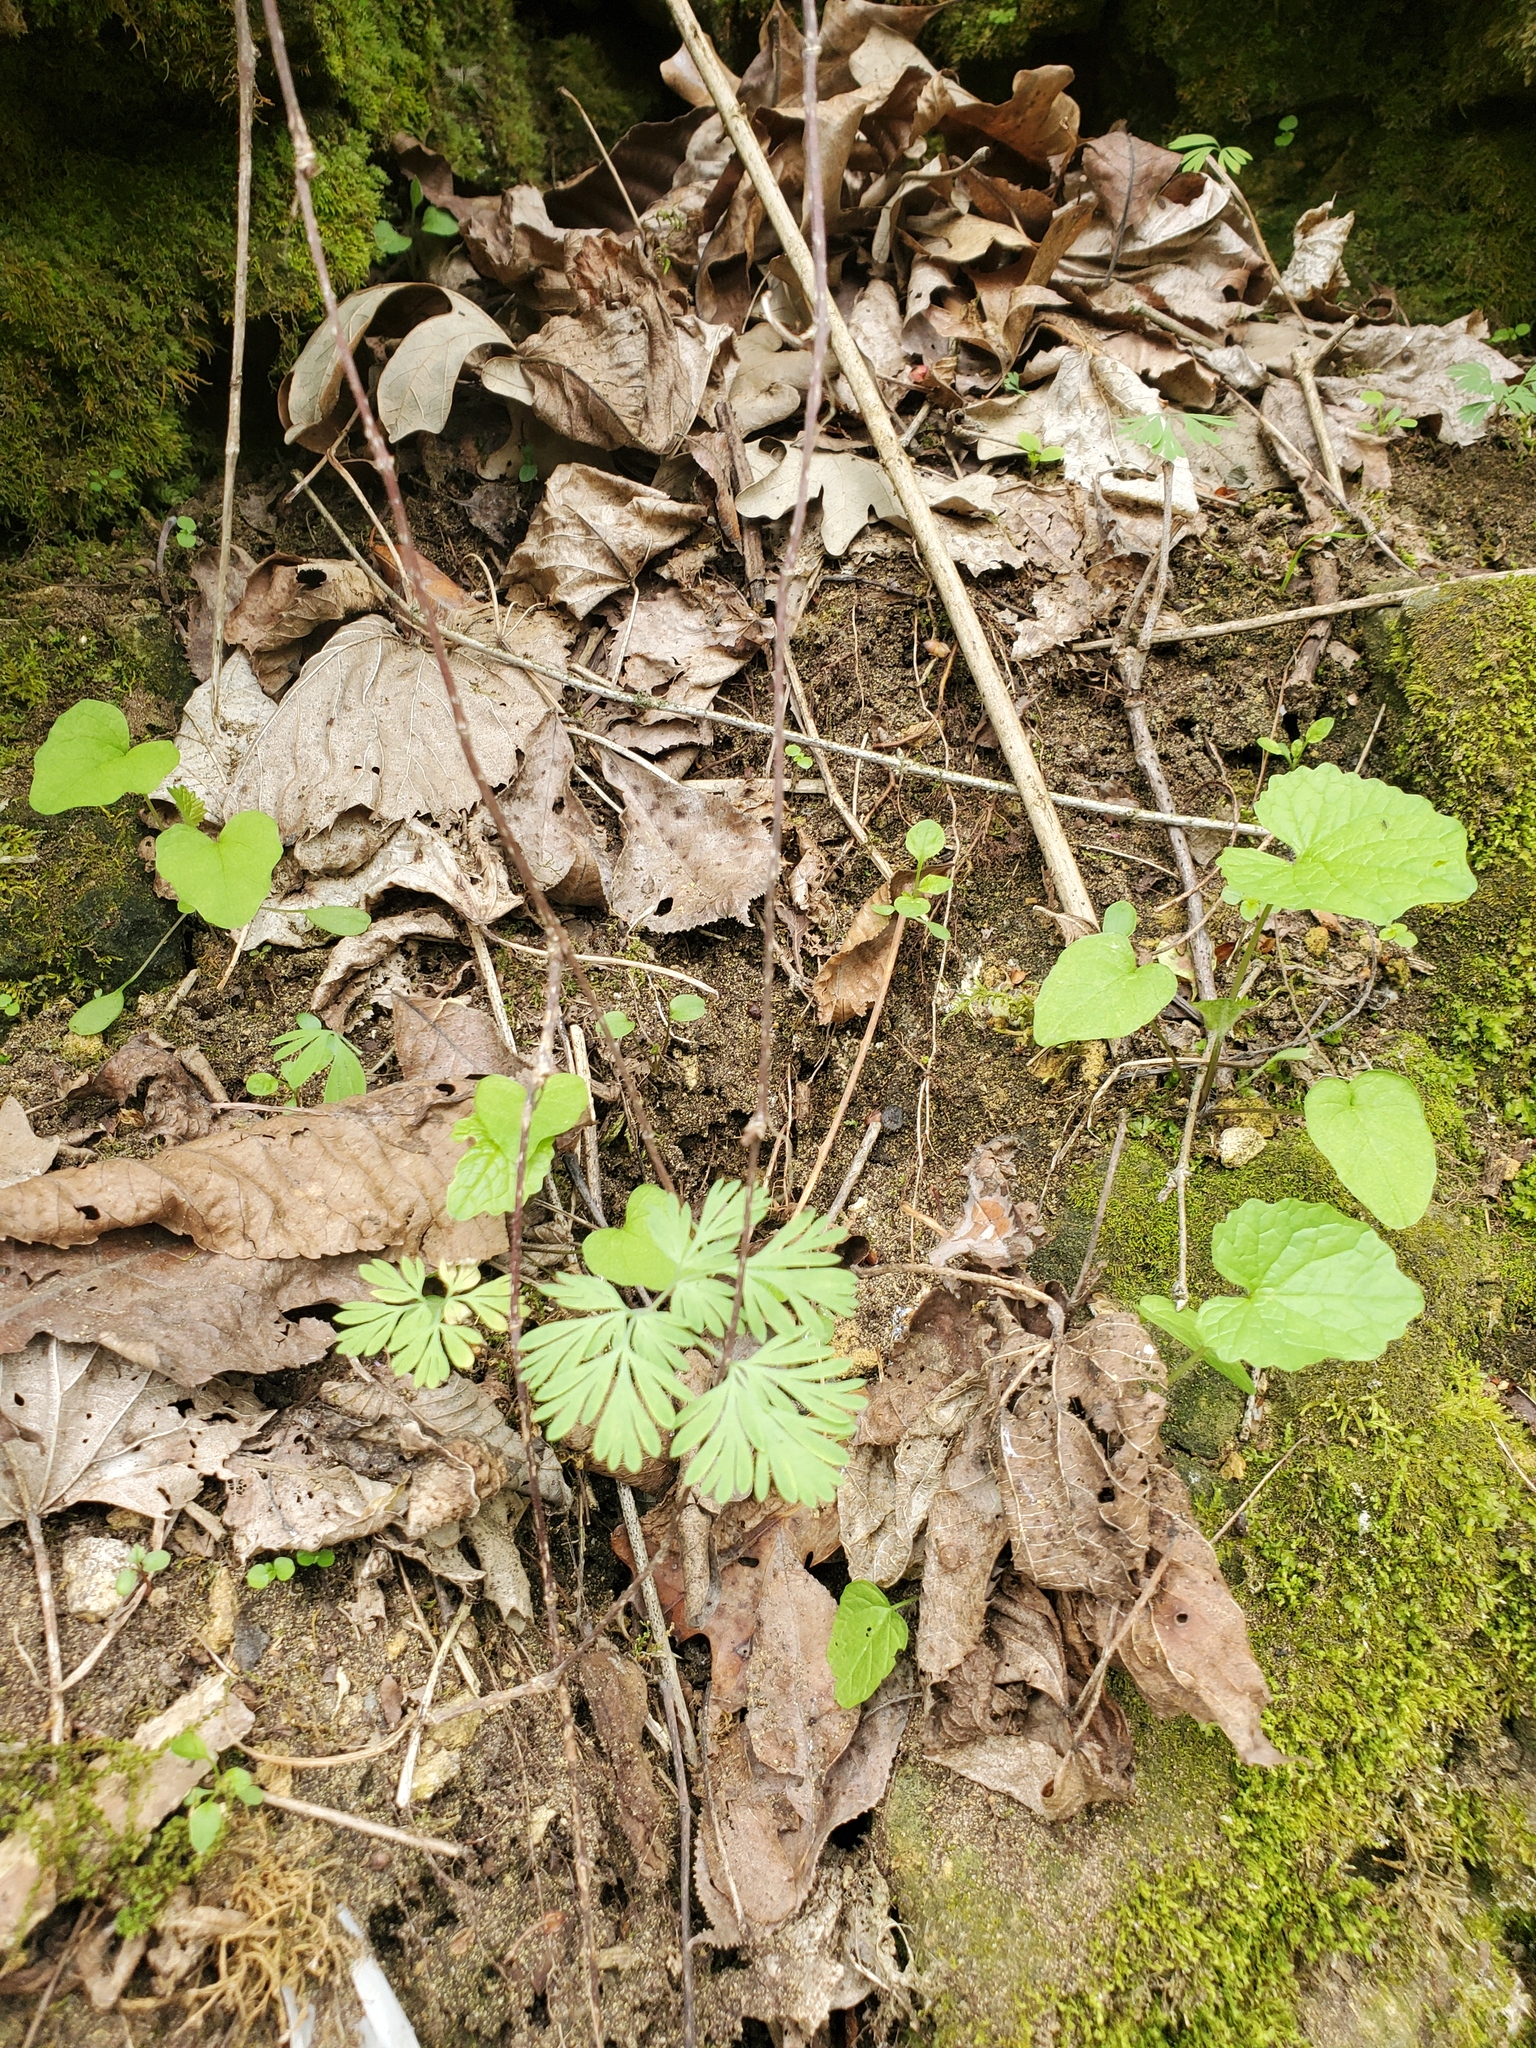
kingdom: Plantae
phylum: Tracheophyta
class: Magnoliopsida
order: Ranunculales
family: Papaveraceae
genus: Dicentra
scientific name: Dicentra cucullaria
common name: Dutchman's breeches
